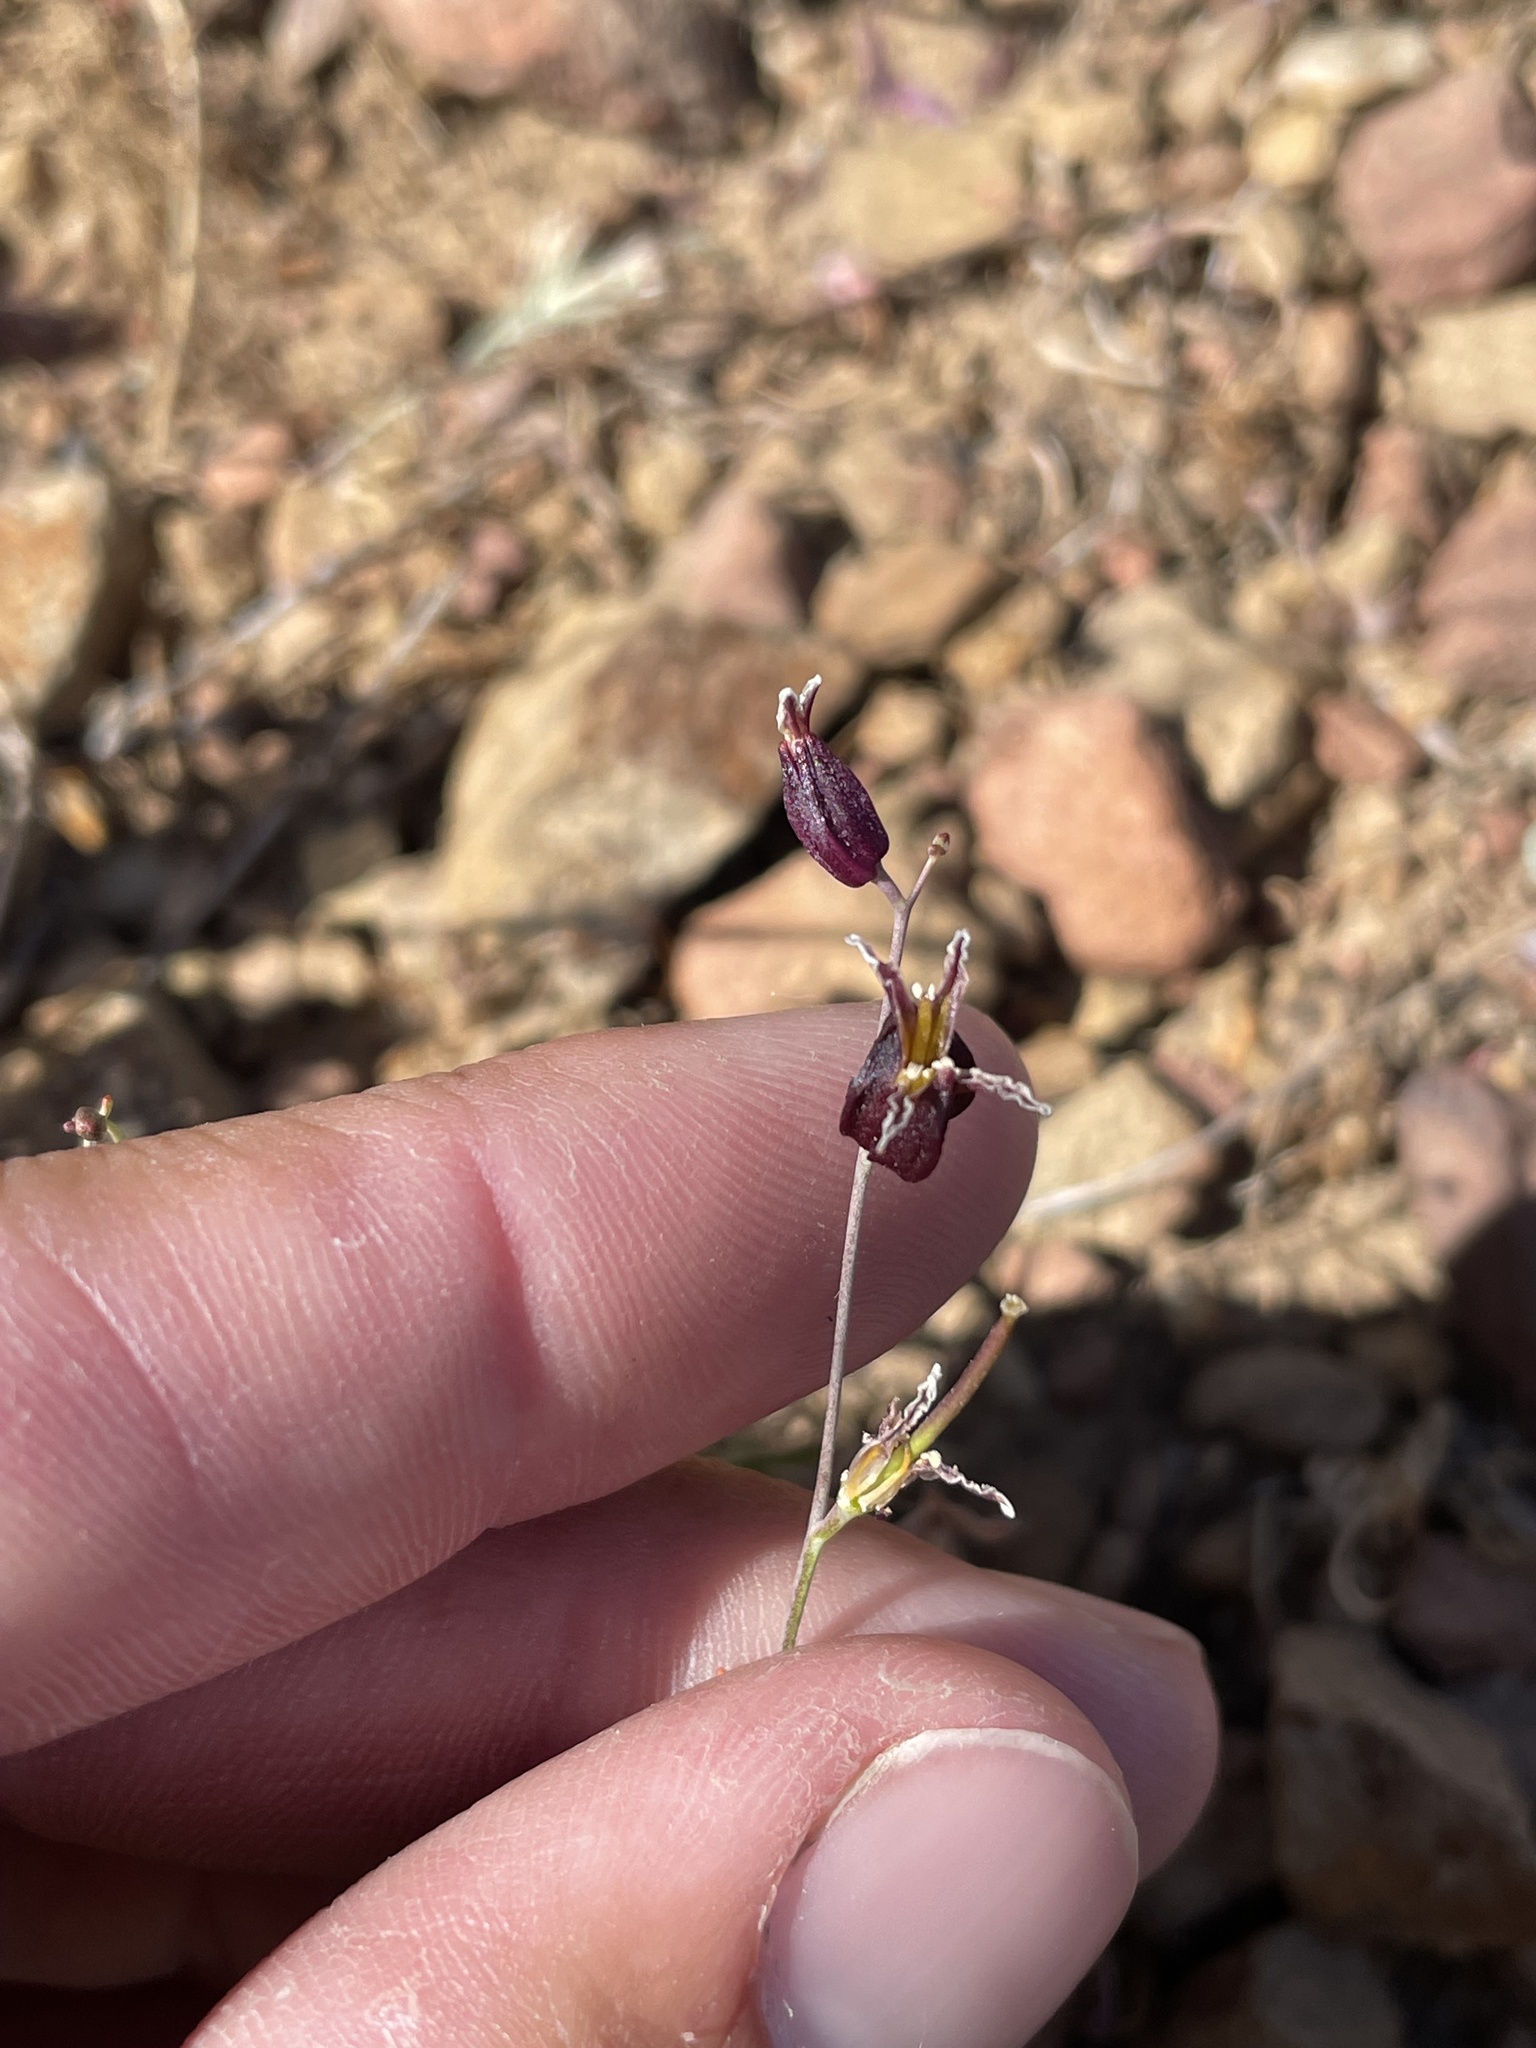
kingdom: Plantae
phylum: Tracheophyta
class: Magnoliopsida
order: Brassicales
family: Brassicaceae
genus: Streptanthus
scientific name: Streptanthus glandulosus
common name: Jewel-flower
